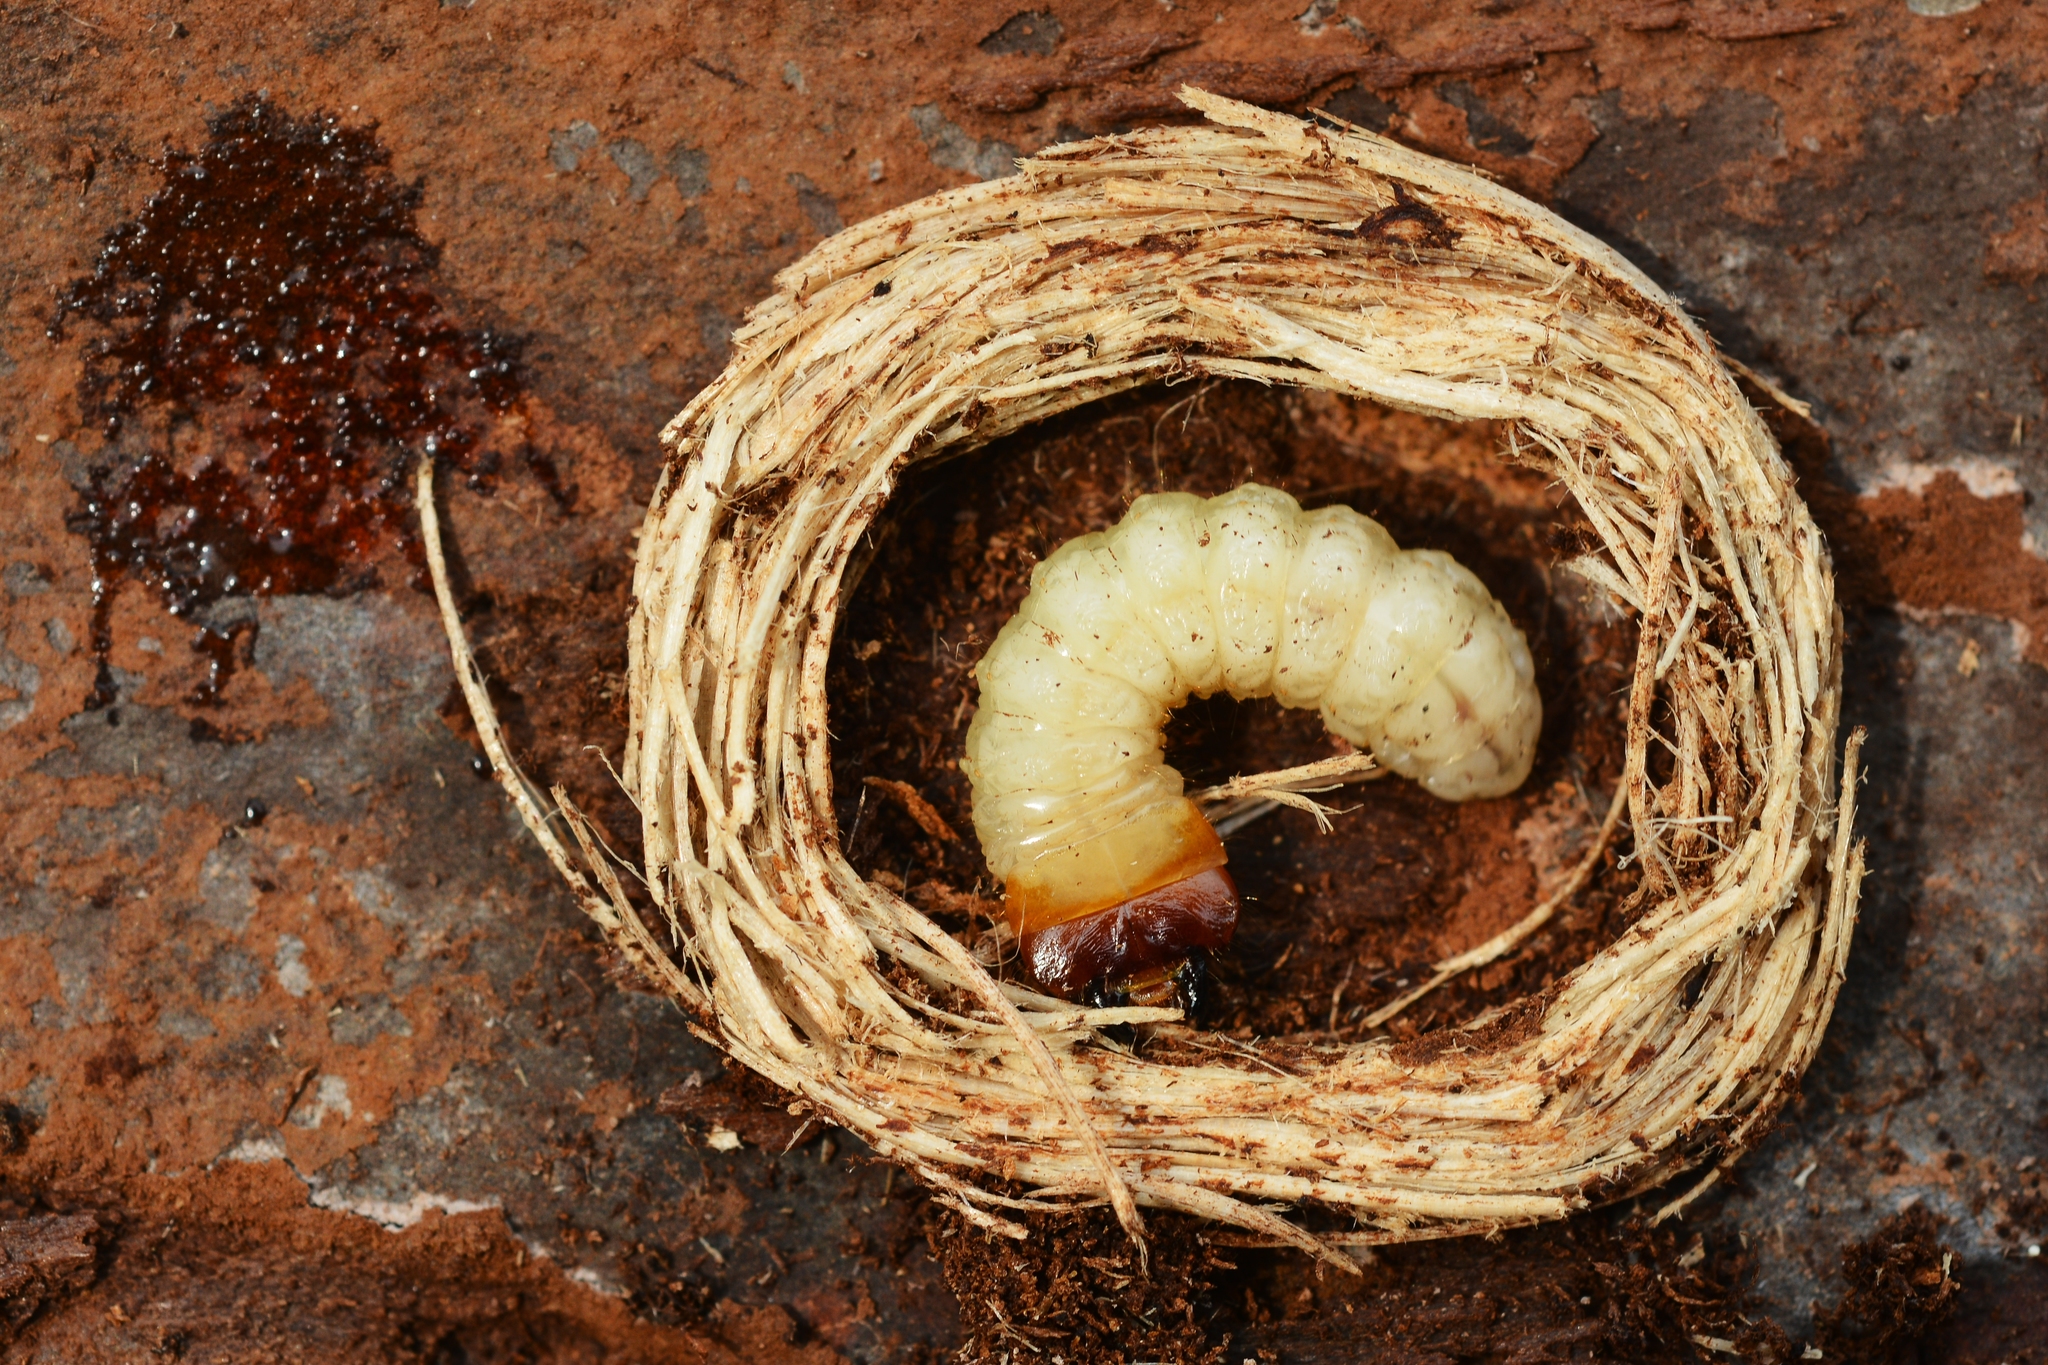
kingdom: Animalia
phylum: Arthropoda
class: Insecta
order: Coleoptera
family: Cerambycidae
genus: Rhagium
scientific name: Rhagium inquisitor
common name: Ribbed pine borer
